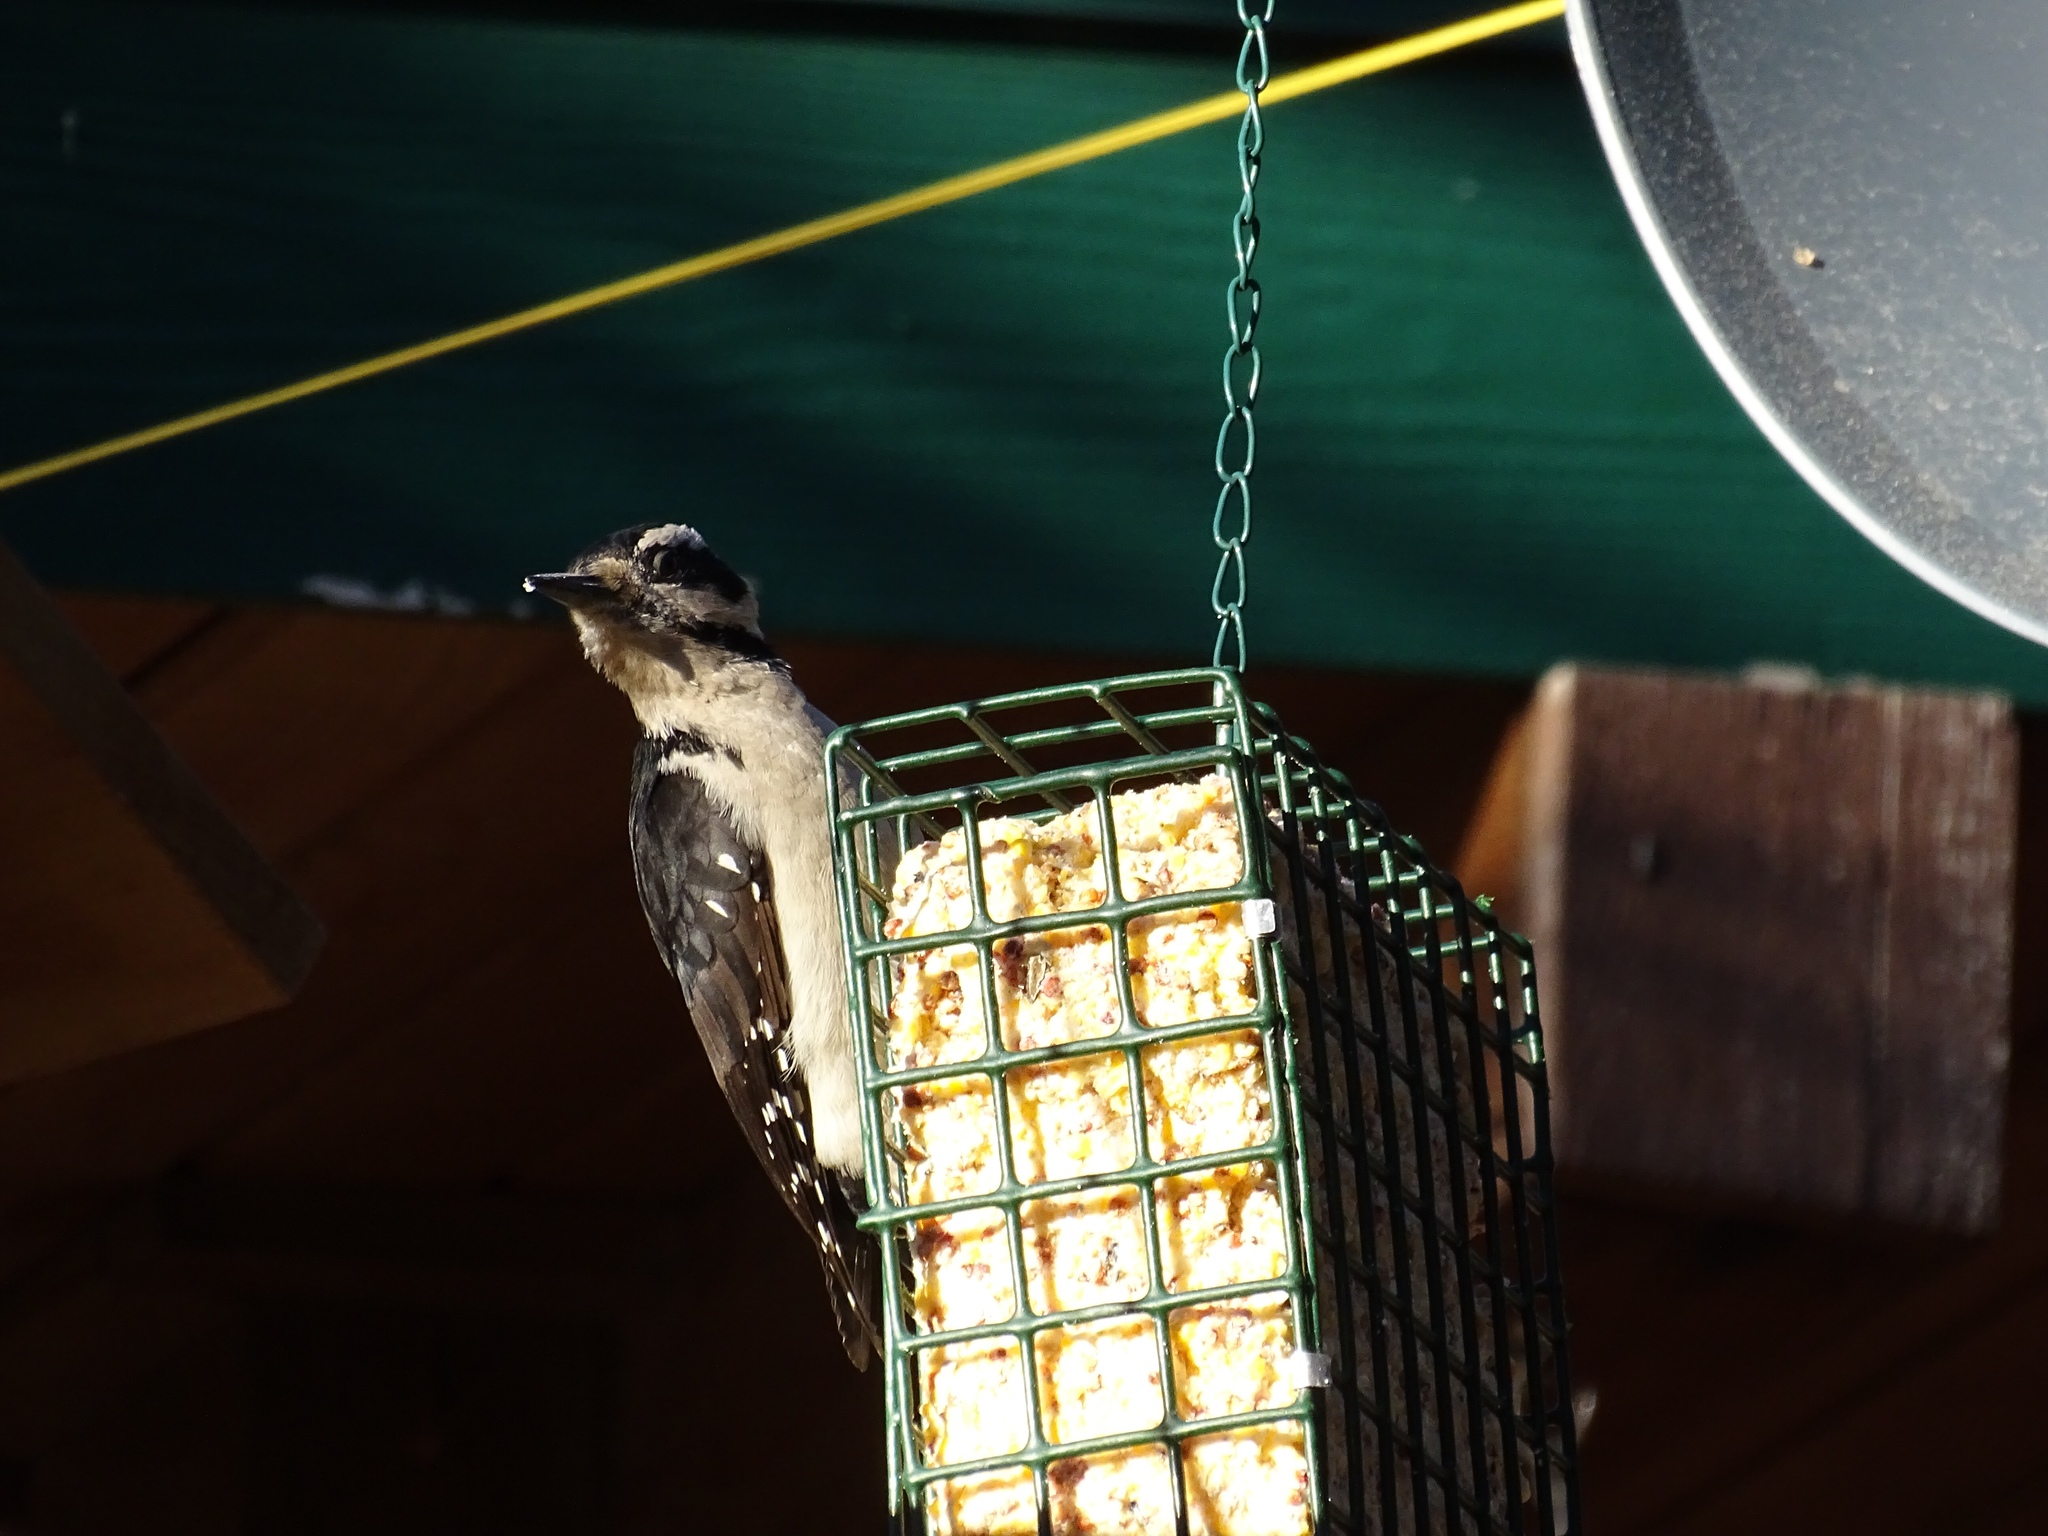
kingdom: Animalia
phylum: Chordata
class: Aves
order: Piciformes
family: Picidae
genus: Leuconotopicus
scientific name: Leuconotopicus villosus
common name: Hairy woodpecker
